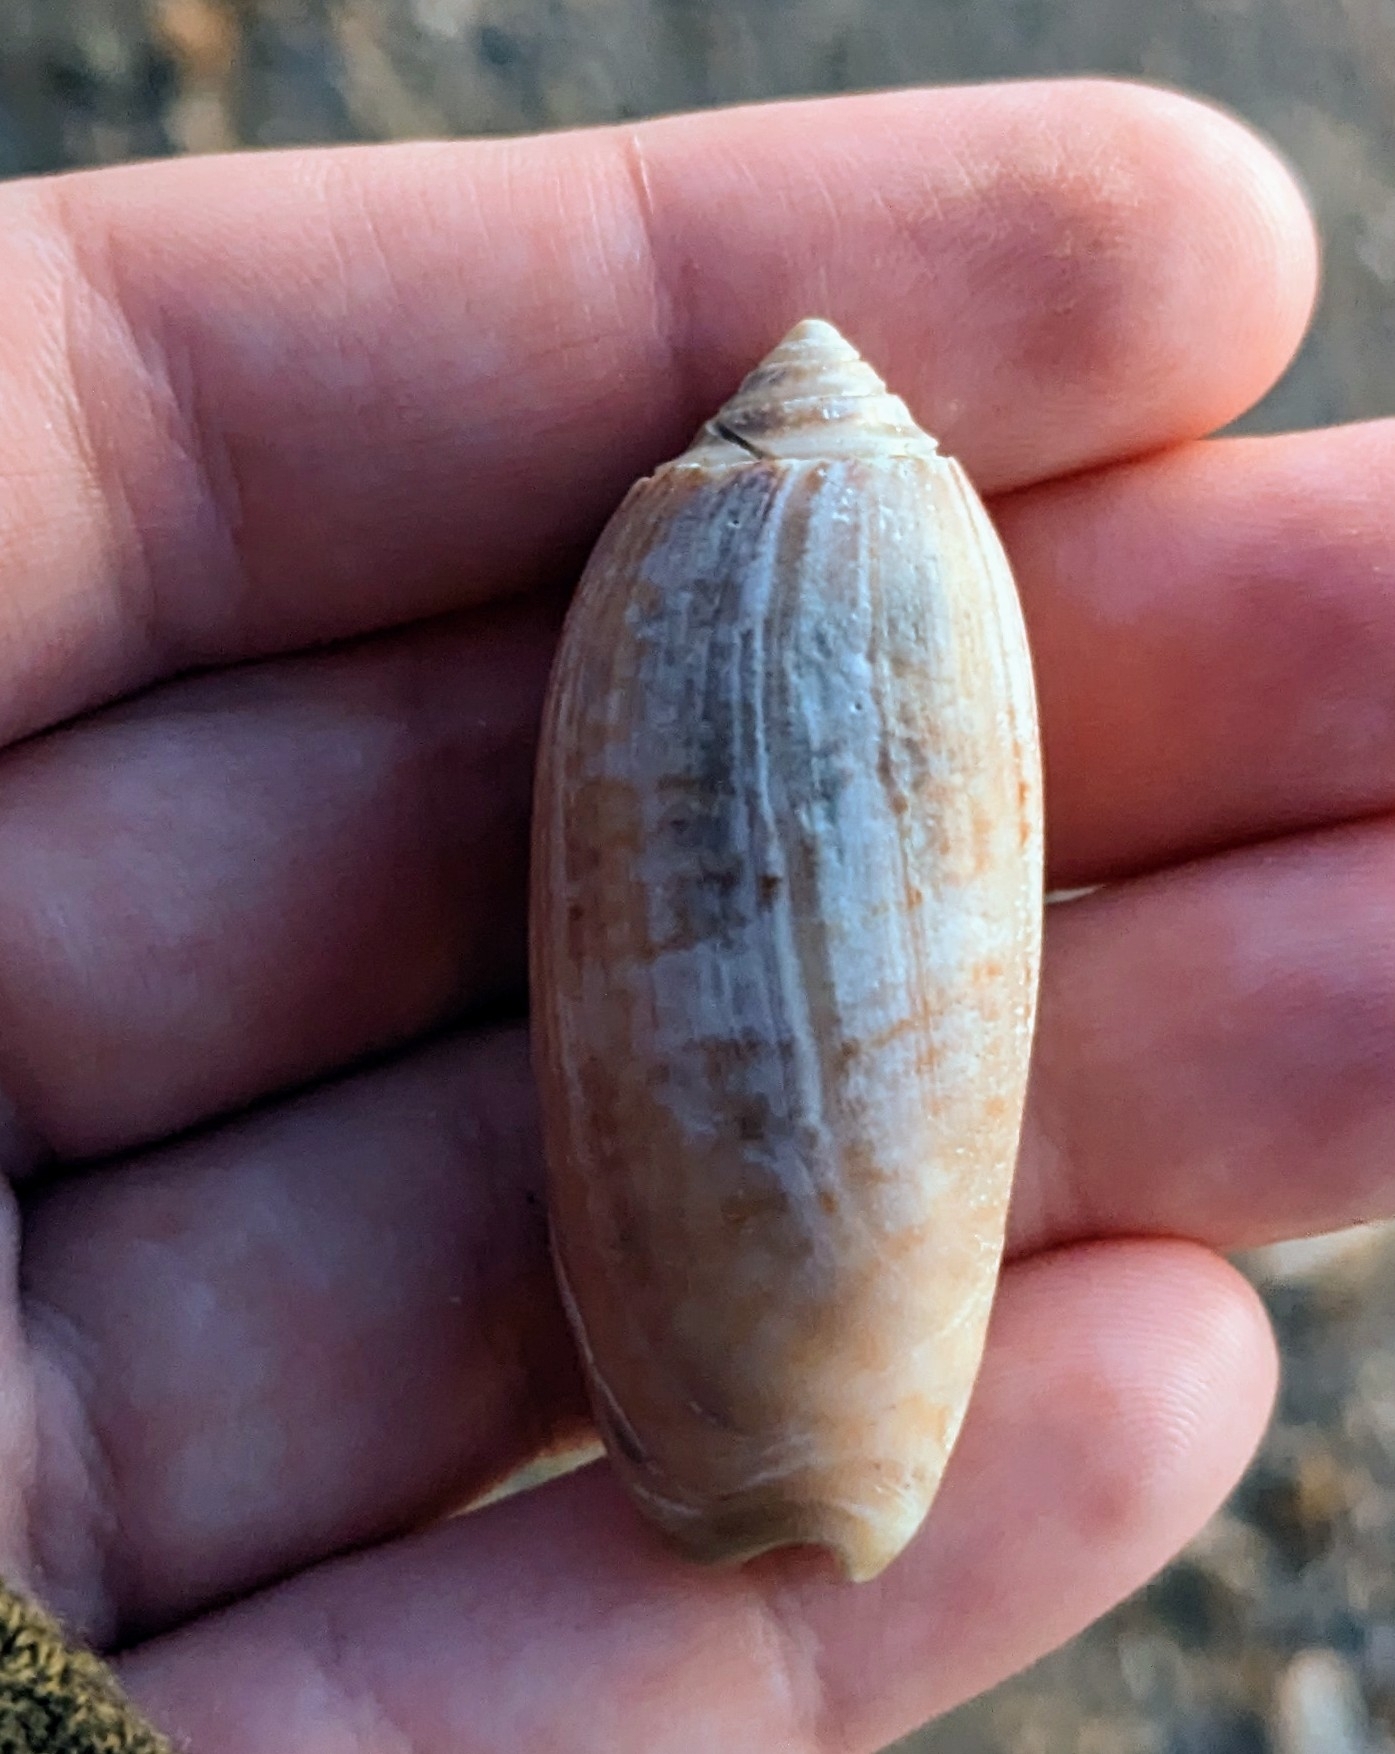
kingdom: Animalia
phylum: Mollusca
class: Gastropoda
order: Neogastropoda
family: Olividae
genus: Oliva
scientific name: Oliva sayana
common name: Lettered olive
